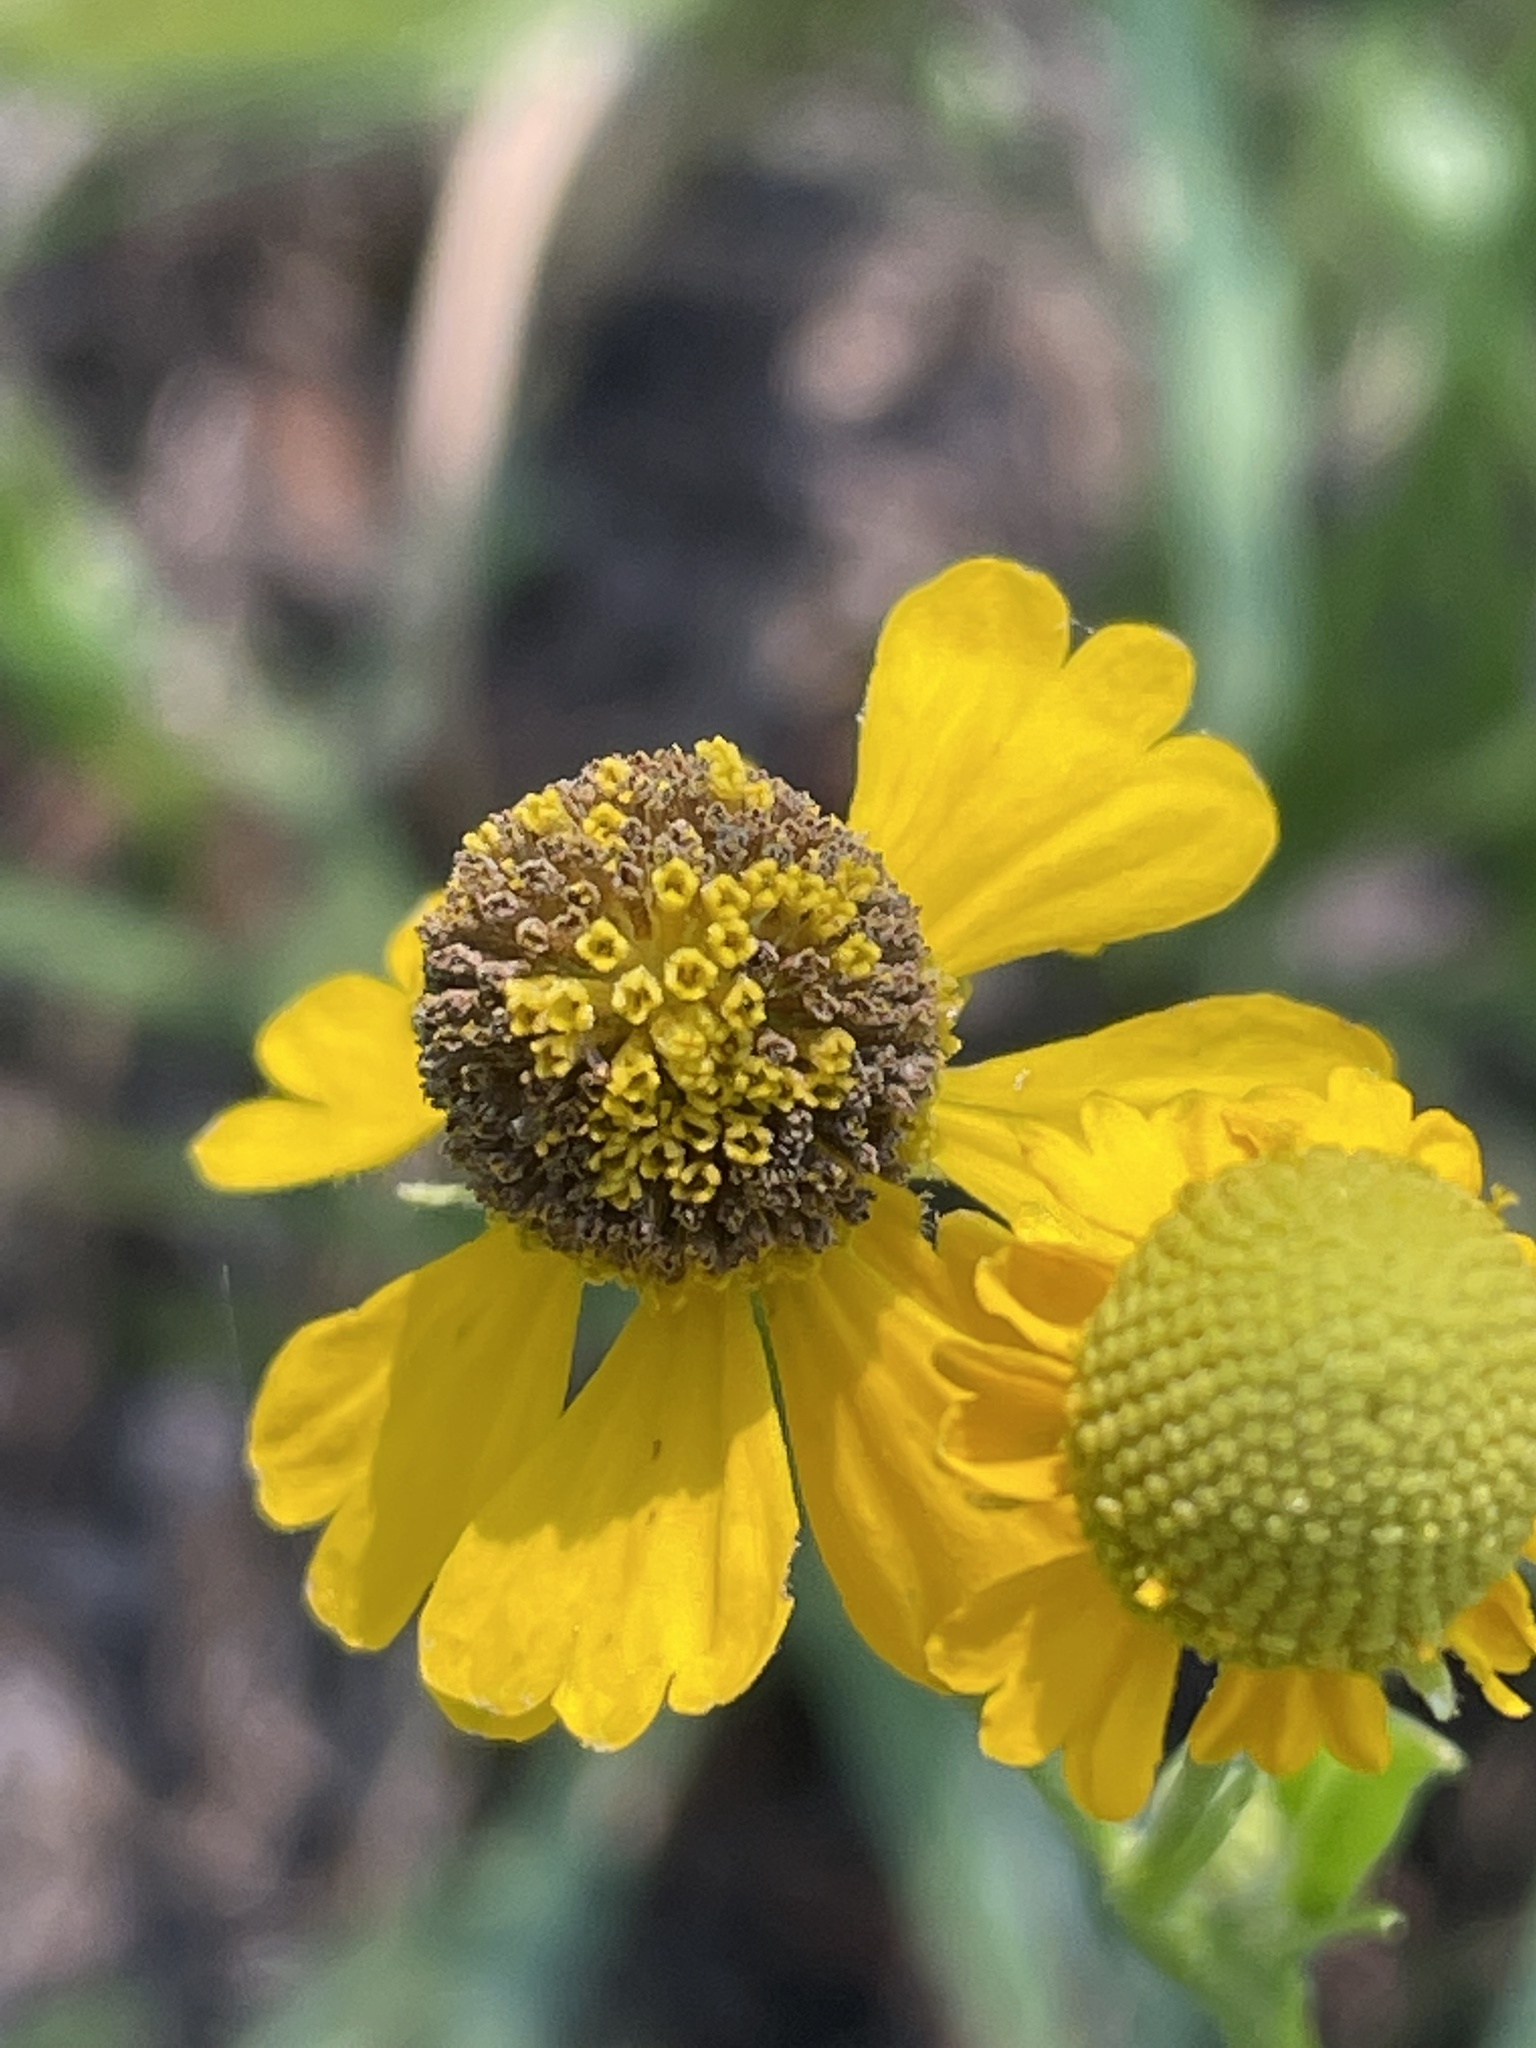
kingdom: Plantae
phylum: Tracheophyta
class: Magnoliopsida
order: Asterales
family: Asteraceae
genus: Helenium
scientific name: Helenium flexuosum
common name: Naked-flowered sneezeweed
